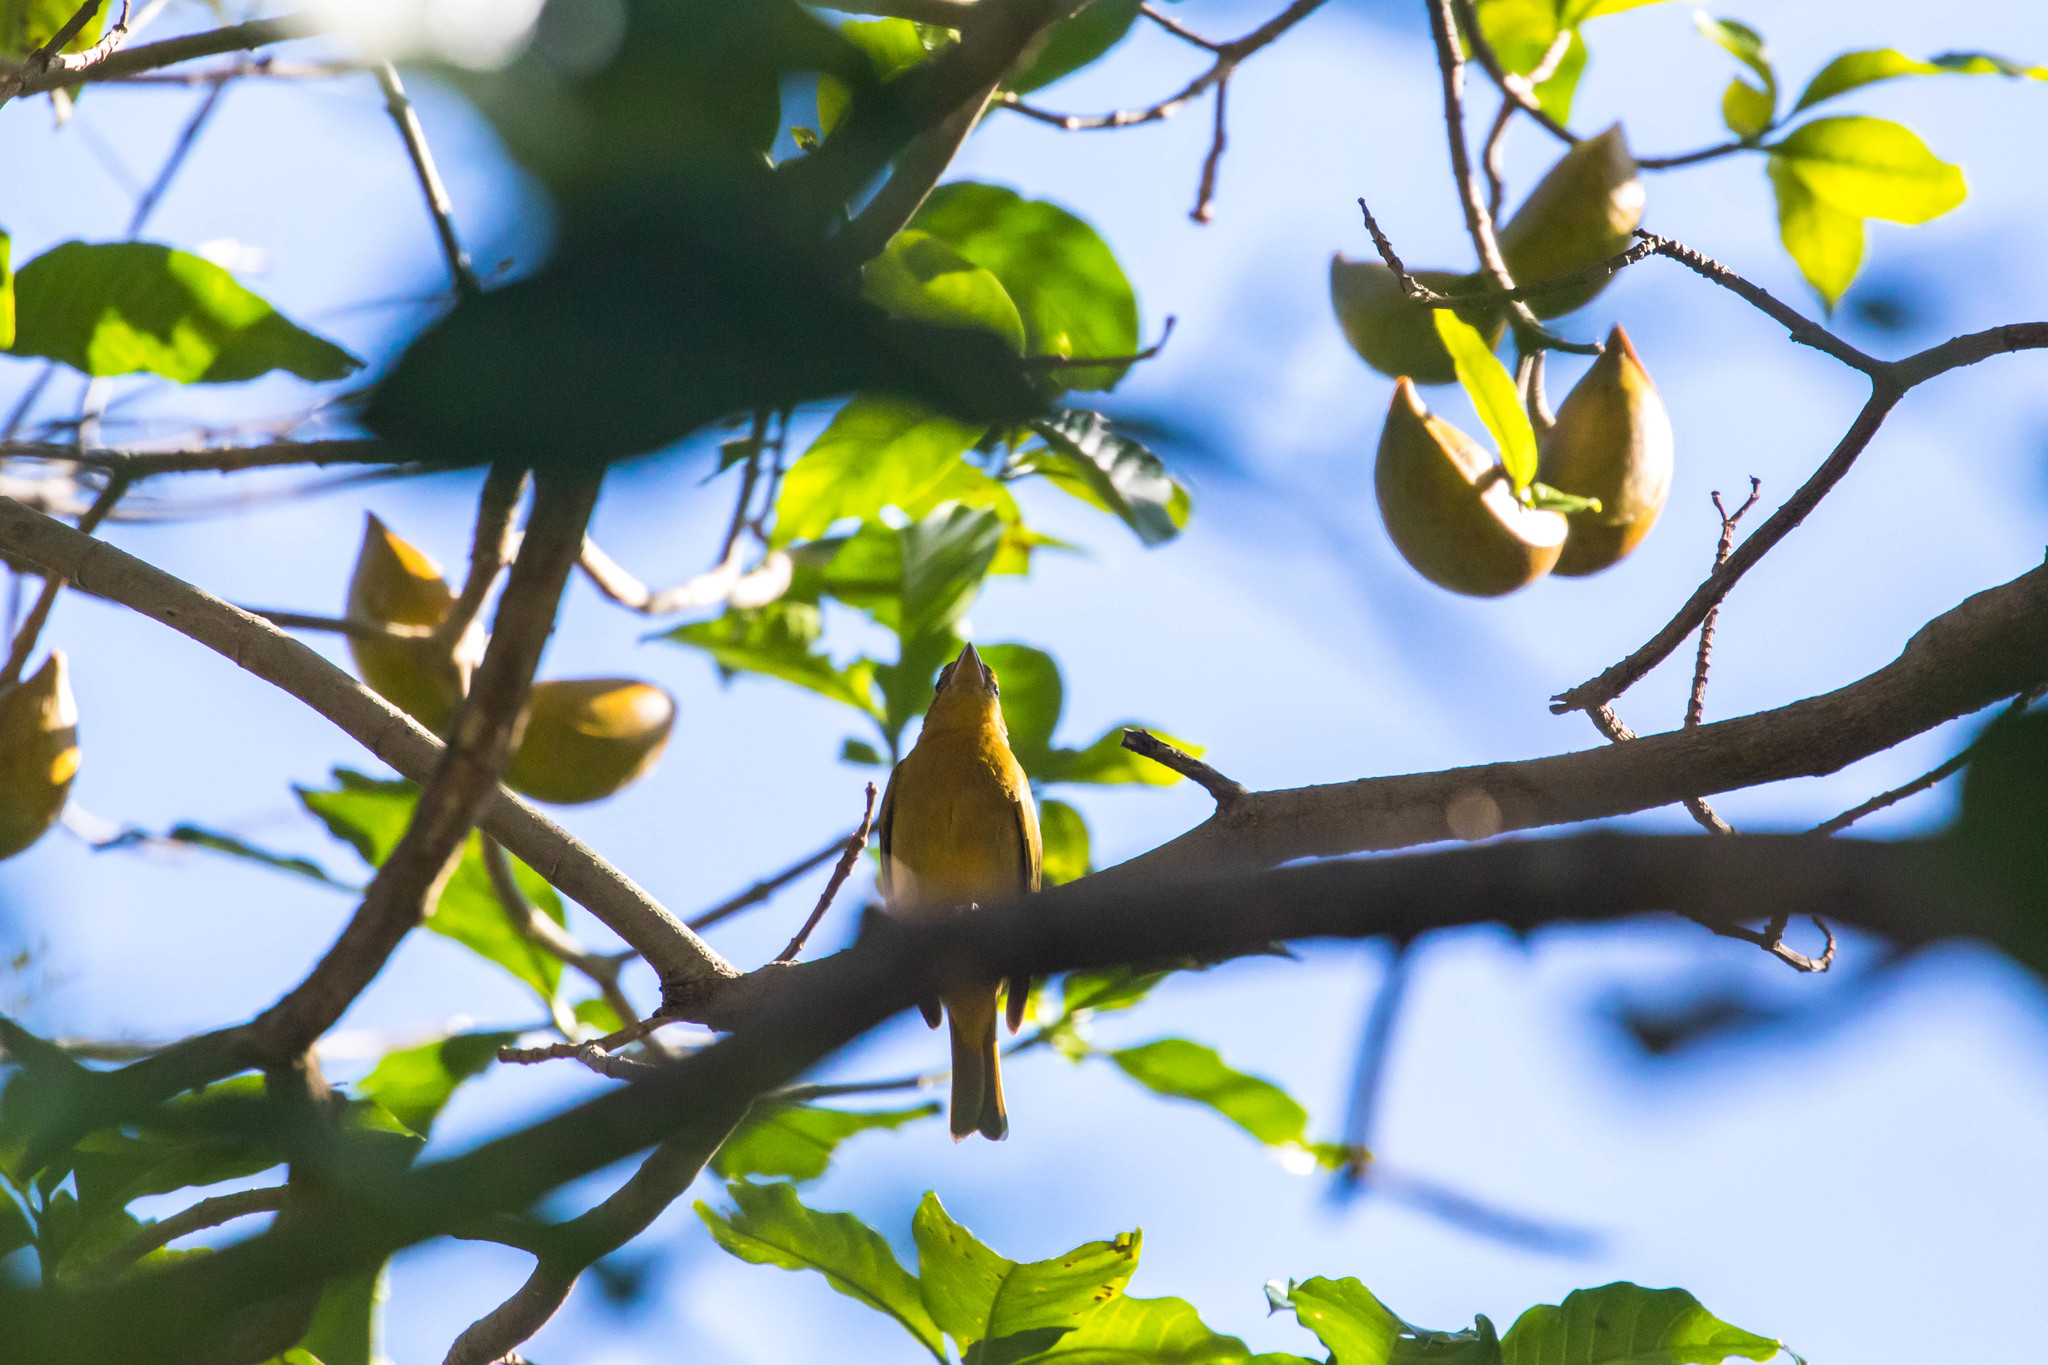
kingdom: Animalia
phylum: Chordata
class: Aves
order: Passeriformes
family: Cardinalidae
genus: Piranga
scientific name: Piranga rubra
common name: Summer tanager
